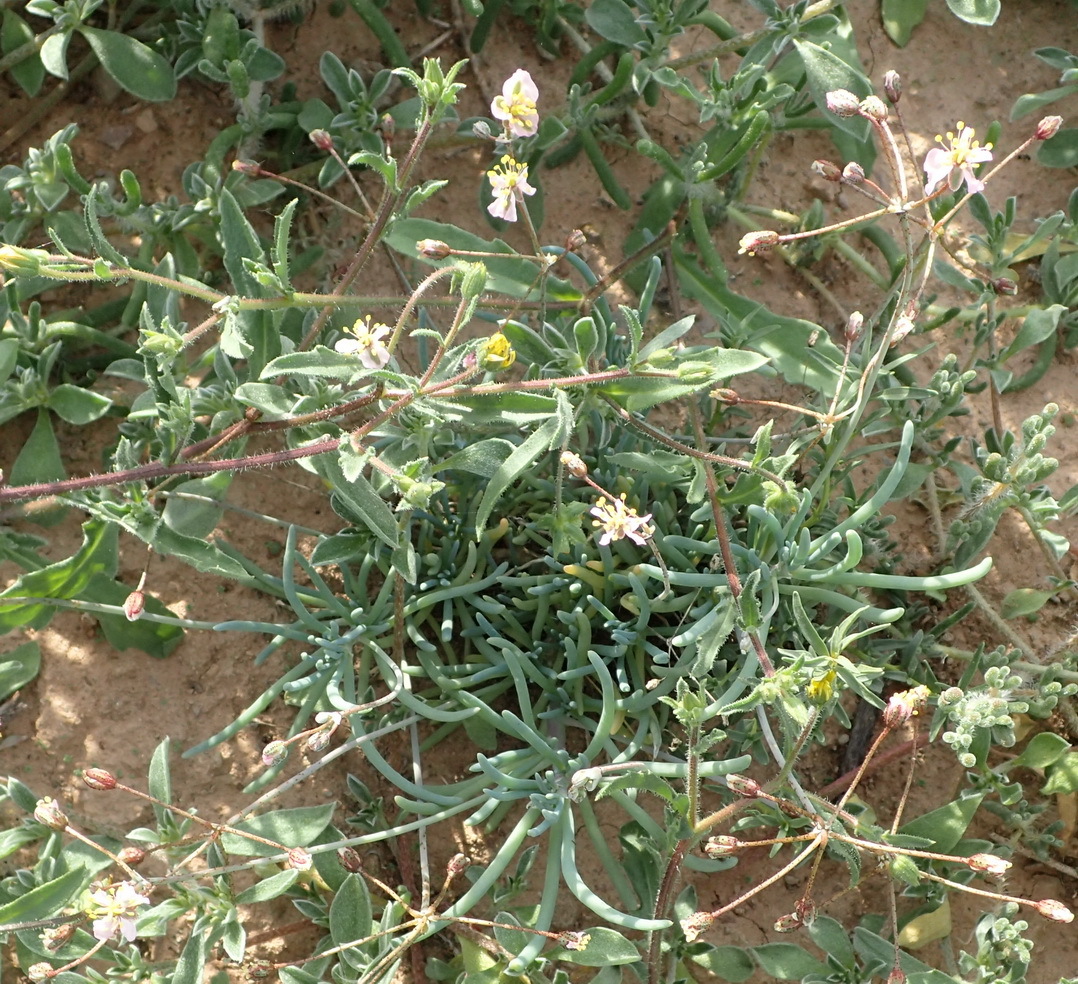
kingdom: Plantae
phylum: Tracheophyta
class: Magnoliopsida
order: Caryophyllales
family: Kewaceae
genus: Kewa
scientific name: Kewa salsoloides
